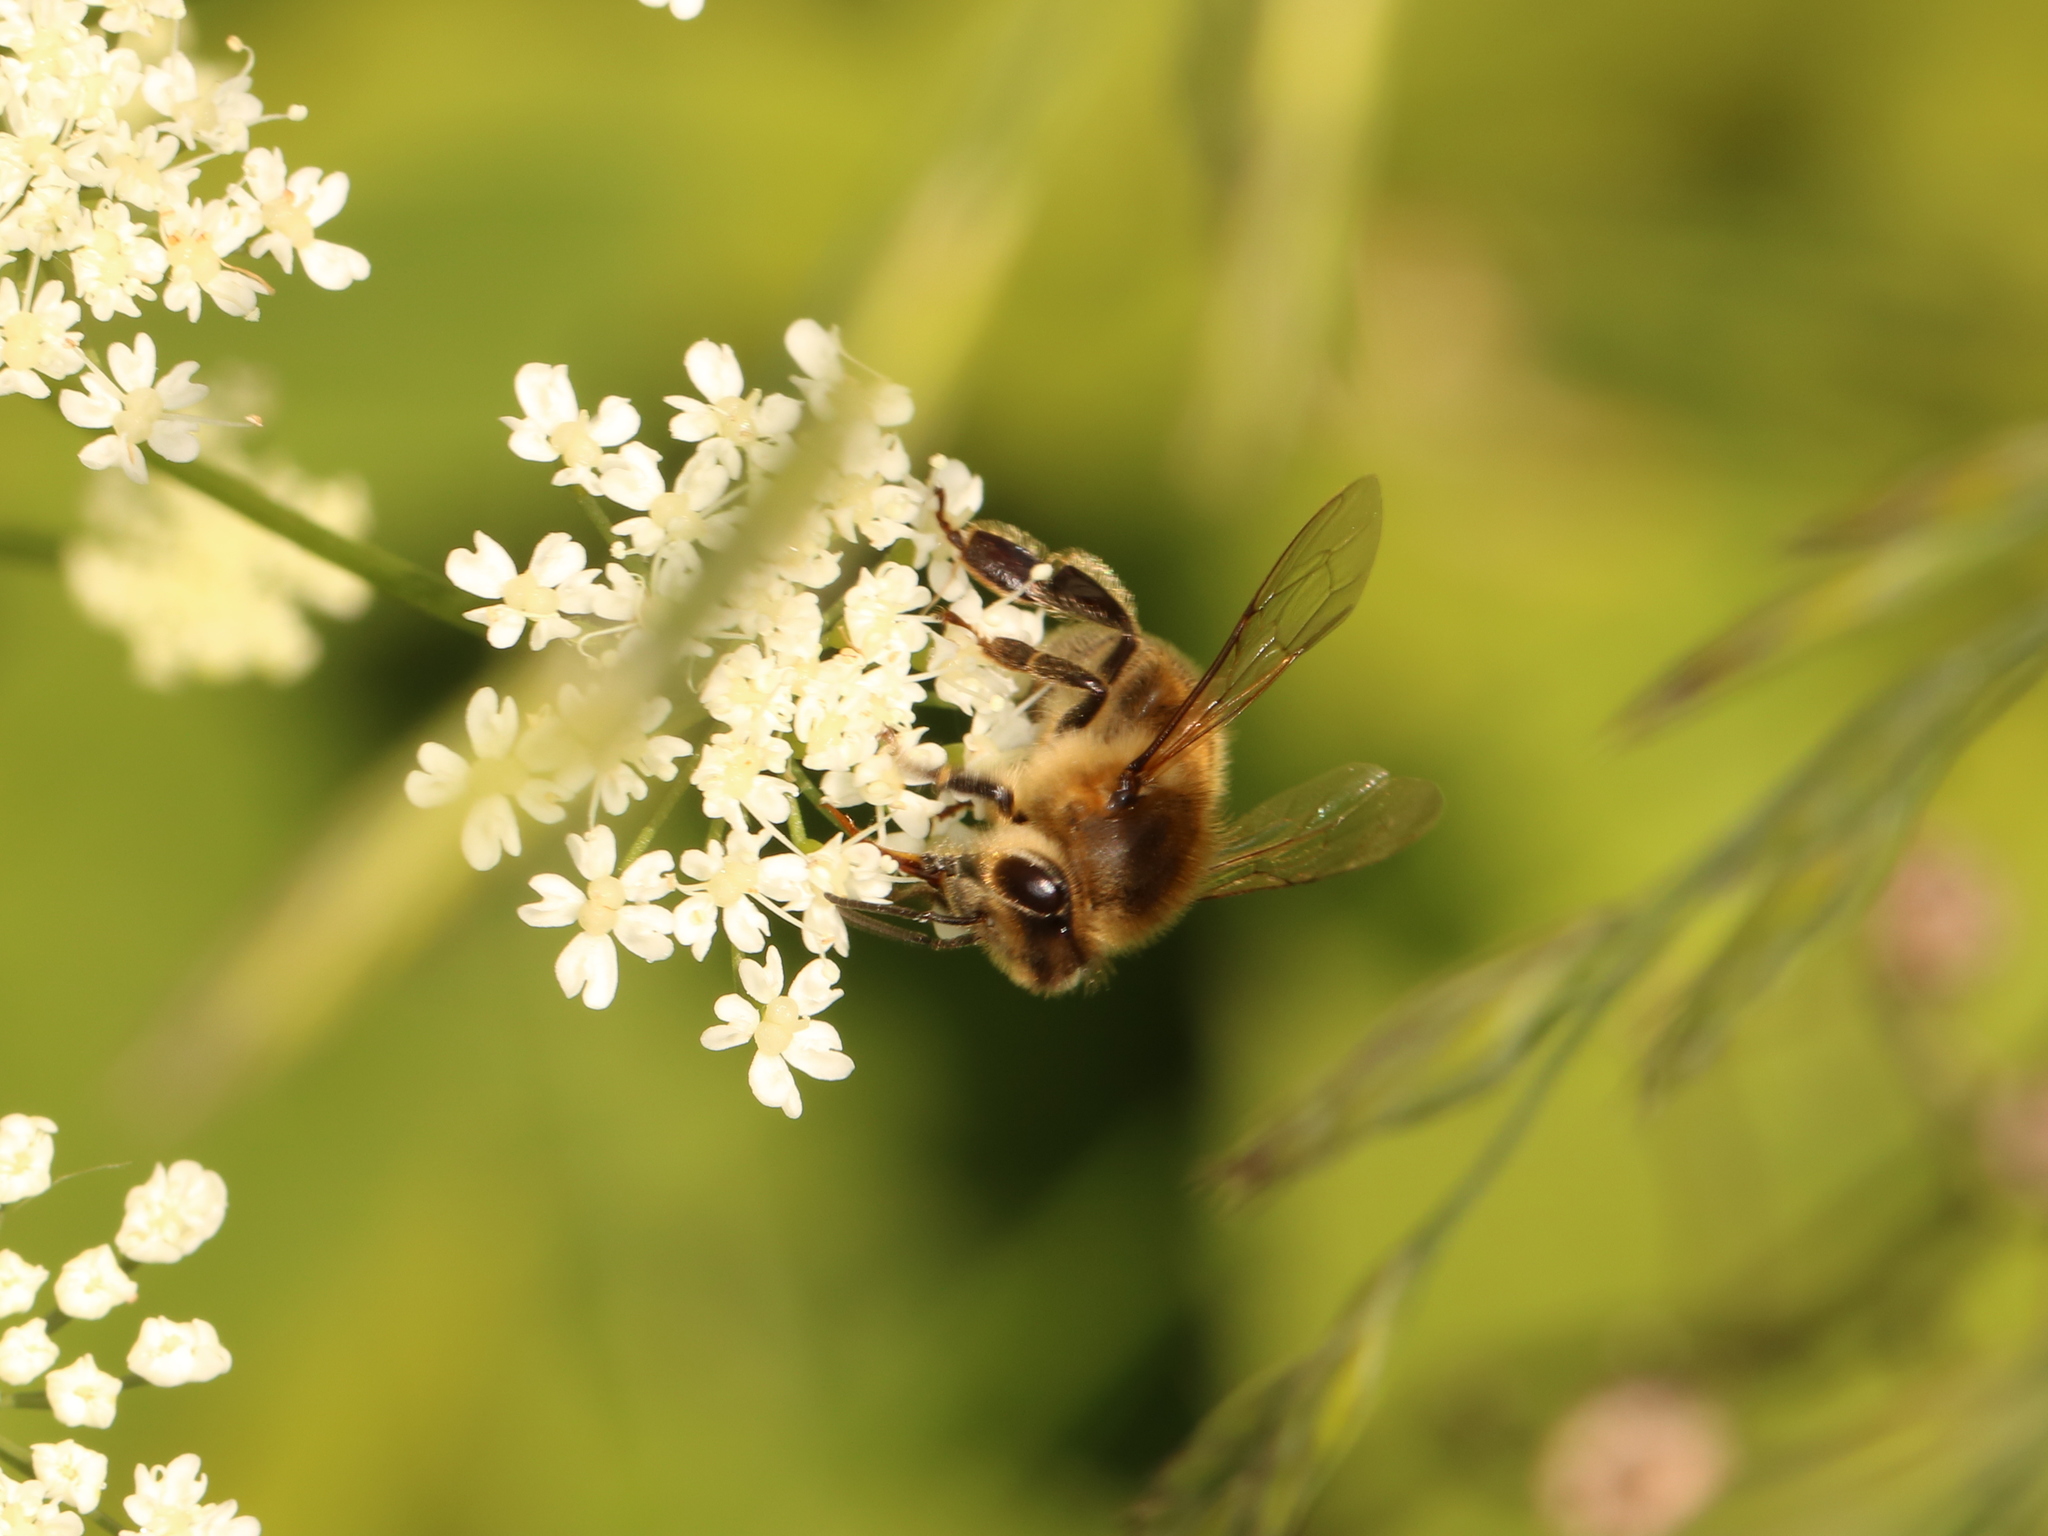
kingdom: Animalia
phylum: Arthropoda
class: Insecta
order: Hymenoptera
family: Apidae
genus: Apis
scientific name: Apis mellifera
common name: Honey bee
